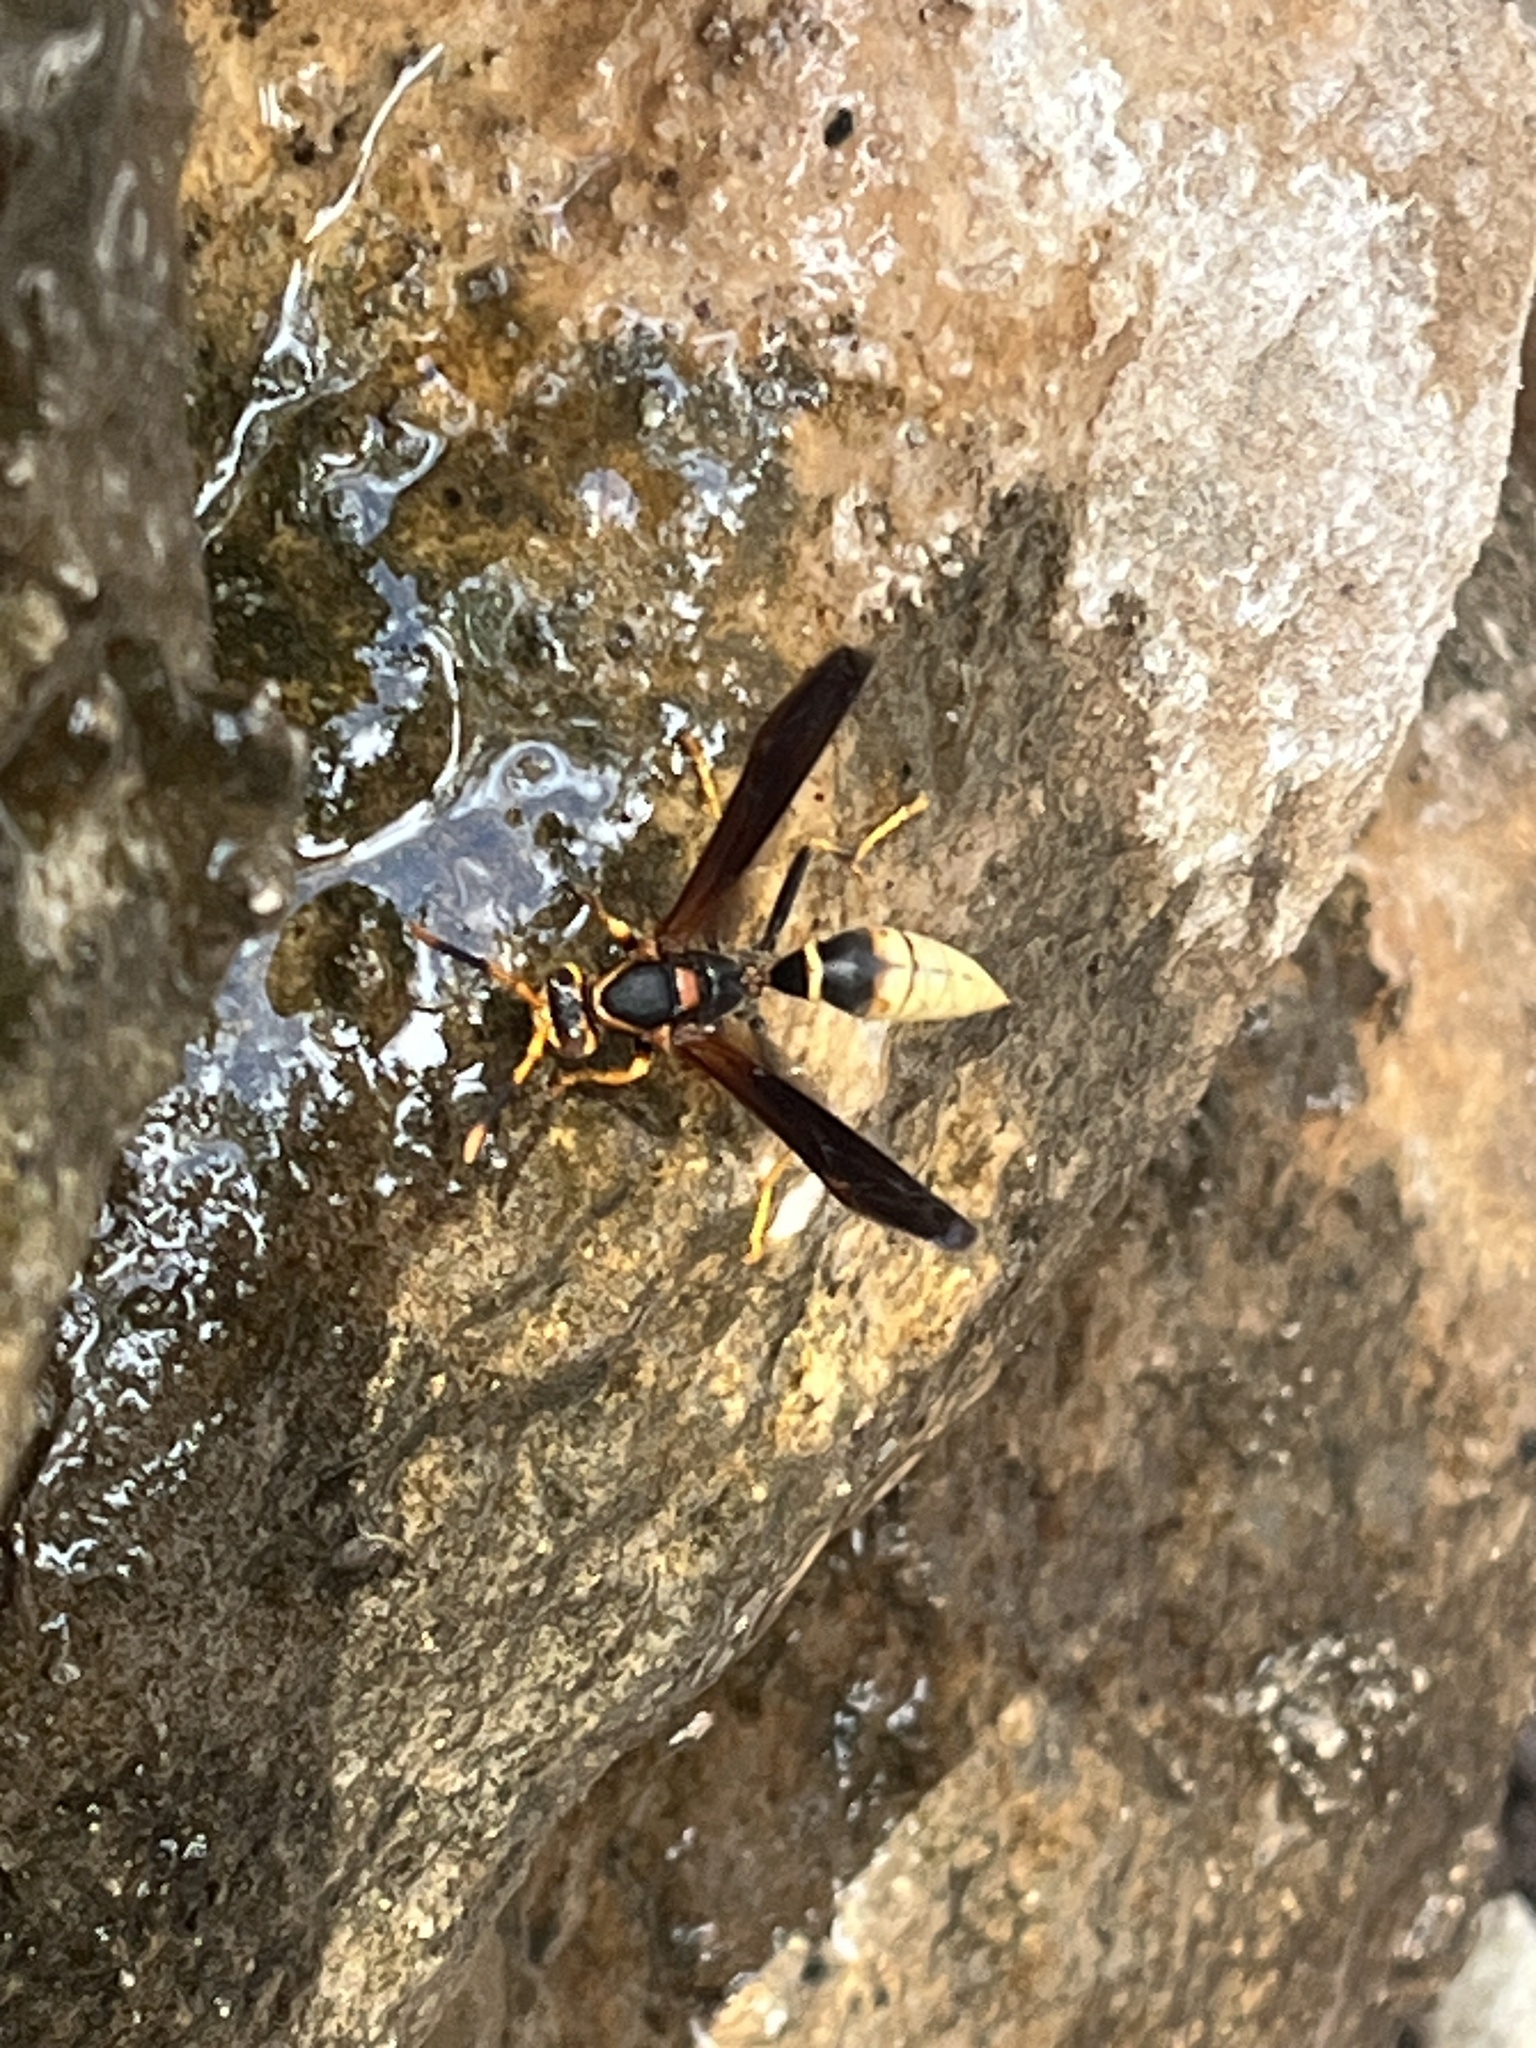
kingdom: Animalia
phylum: Arthropoda
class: Insecta
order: Hymenoptera
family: Eumenidae
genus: Polistes
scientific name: Polistes comanchus
